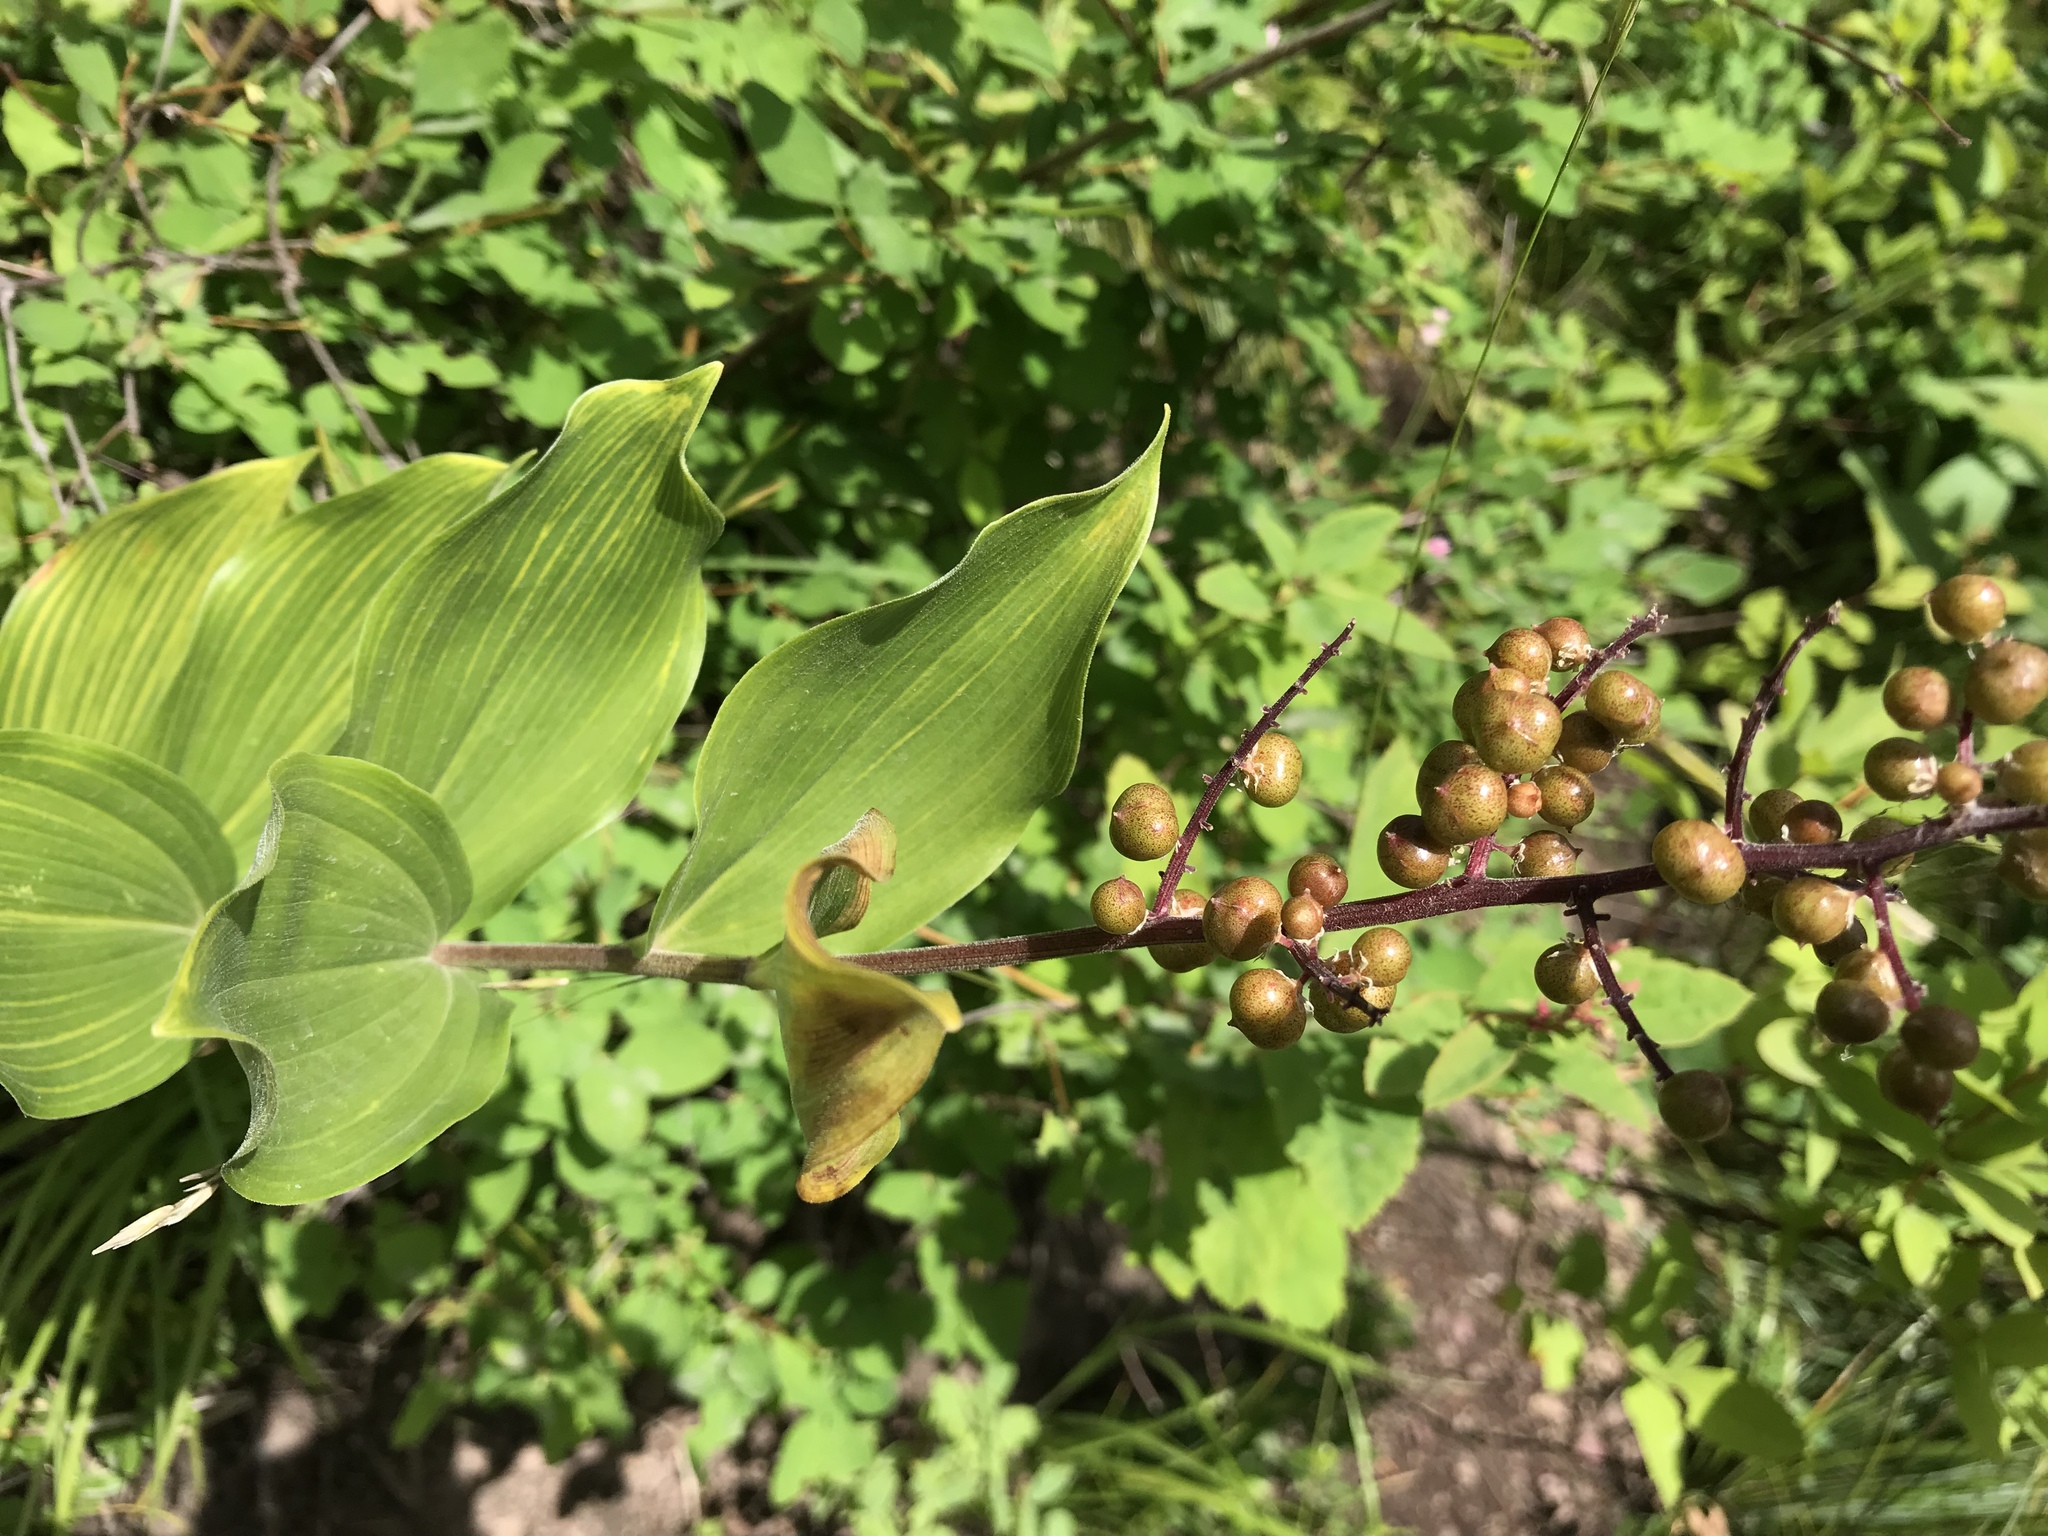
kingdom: Plantae
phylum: Tracheophyta
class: Liliopsida
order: Asparagales
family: Asparagaceae
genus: Maianthemum
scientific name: Maianthemum racemosum
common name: False spikenard
